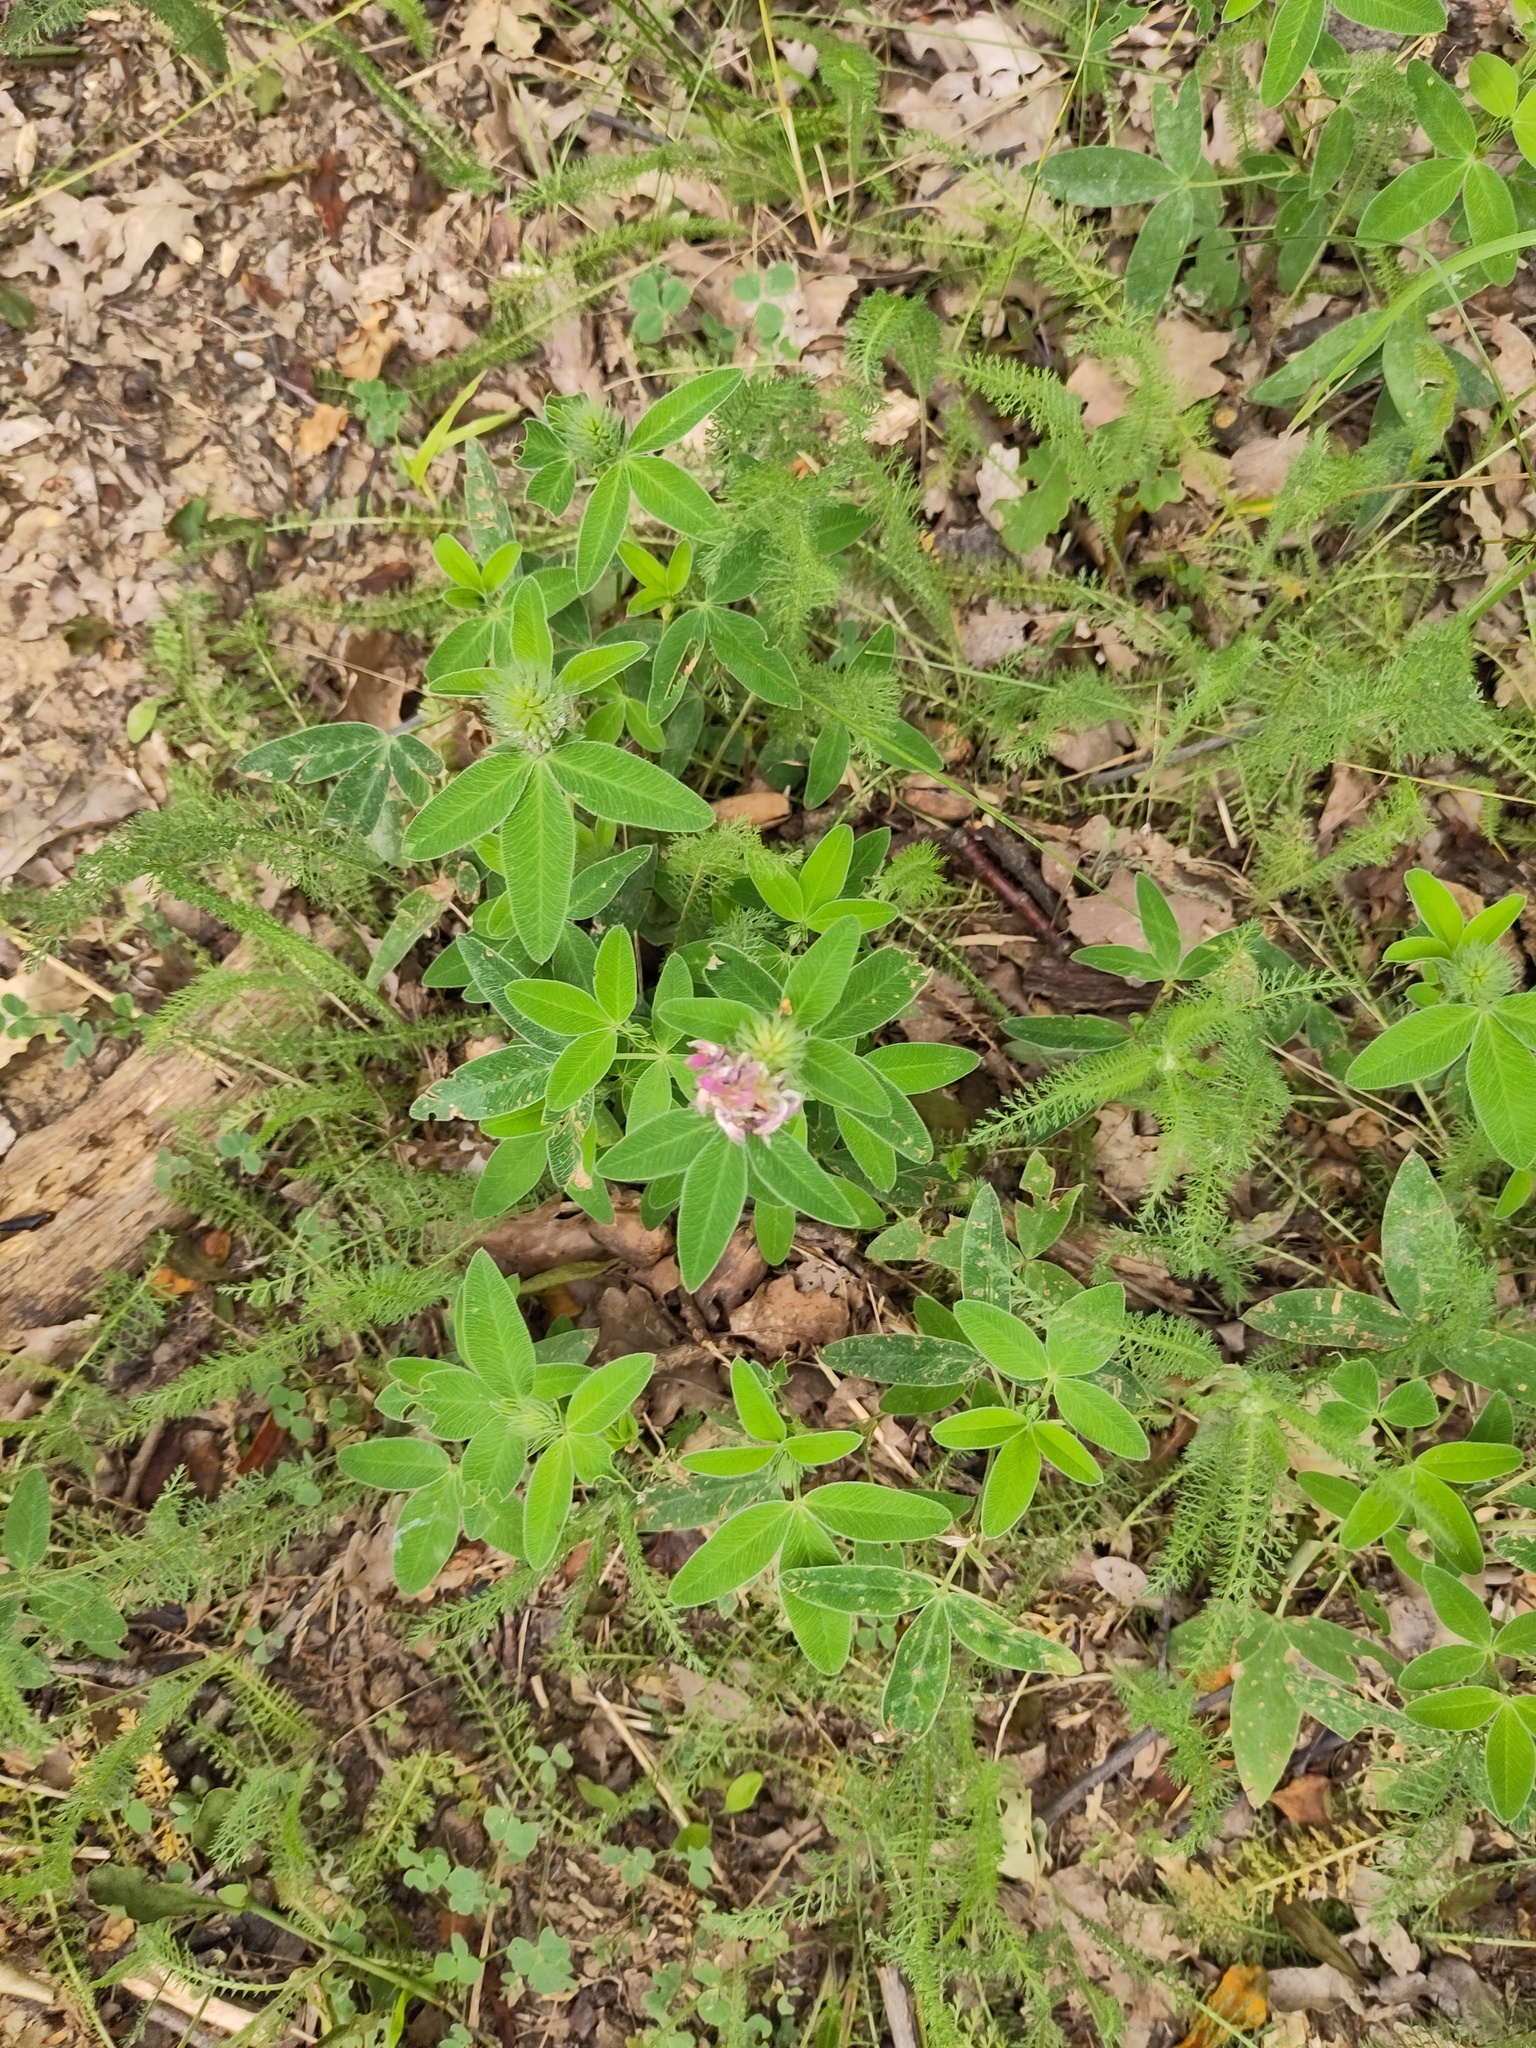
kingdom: Plantae
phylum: Tracheophyta
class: Magnoliopsida
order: Fabales
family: Fabaceae
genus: Trifolium
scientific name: Trifolium medium
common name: Zigzag clover
